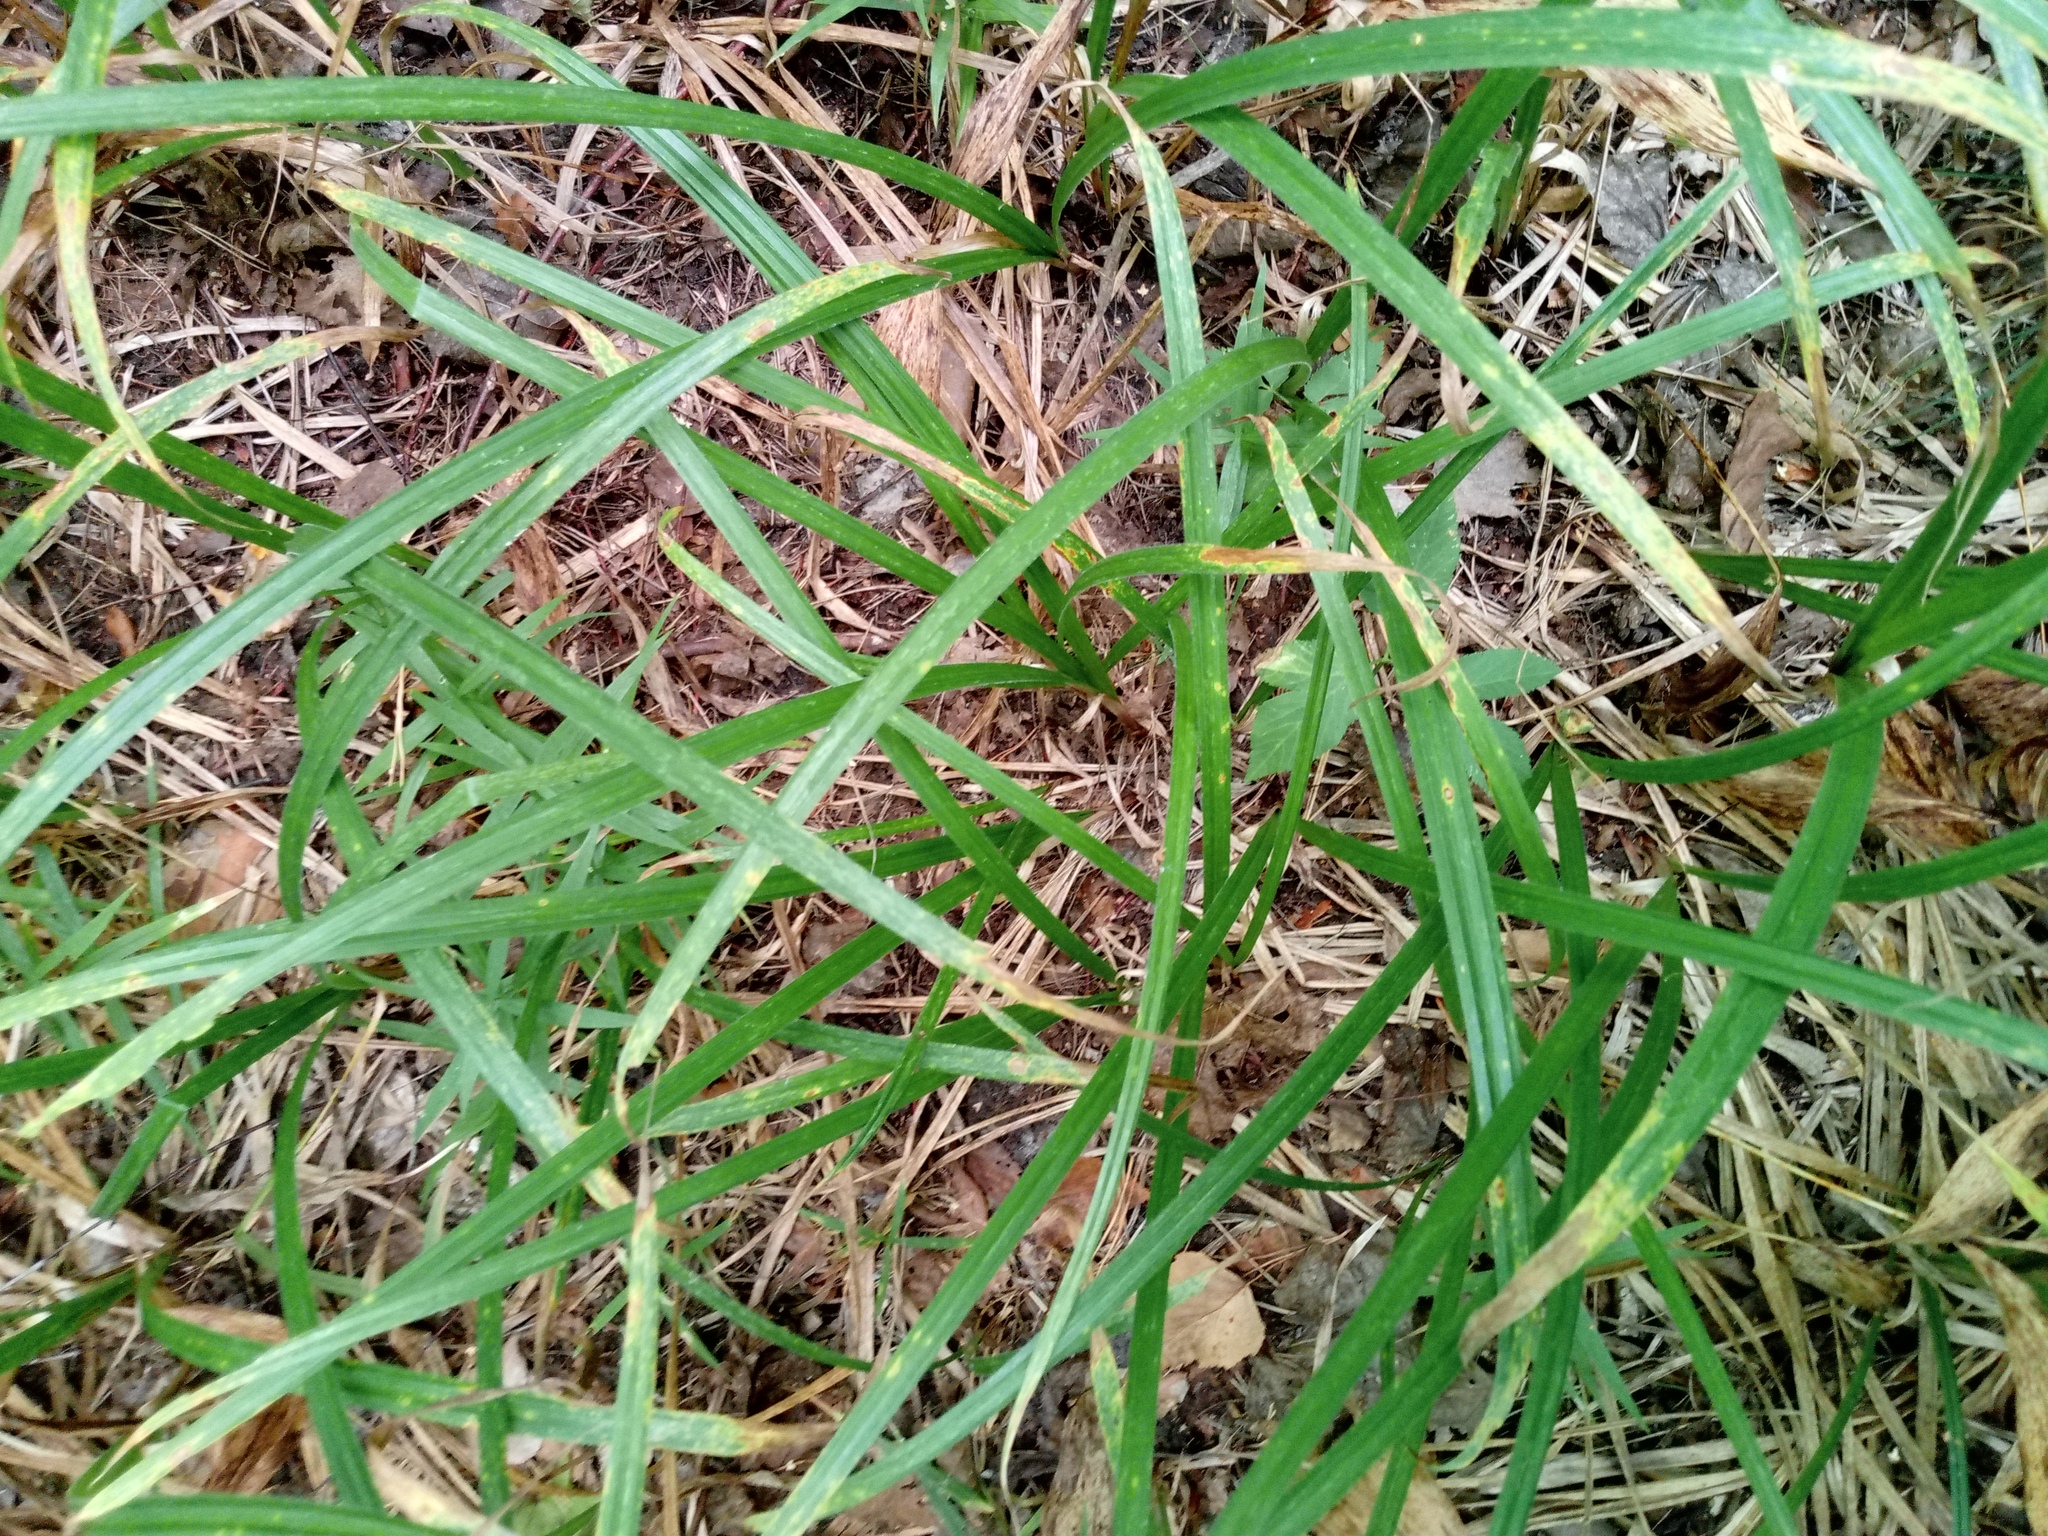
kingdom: Plantae
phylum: Tracheophyta
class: Liliopsida
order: Poales
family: Cyperaceae
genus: Carex
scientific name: Carex pilosa
